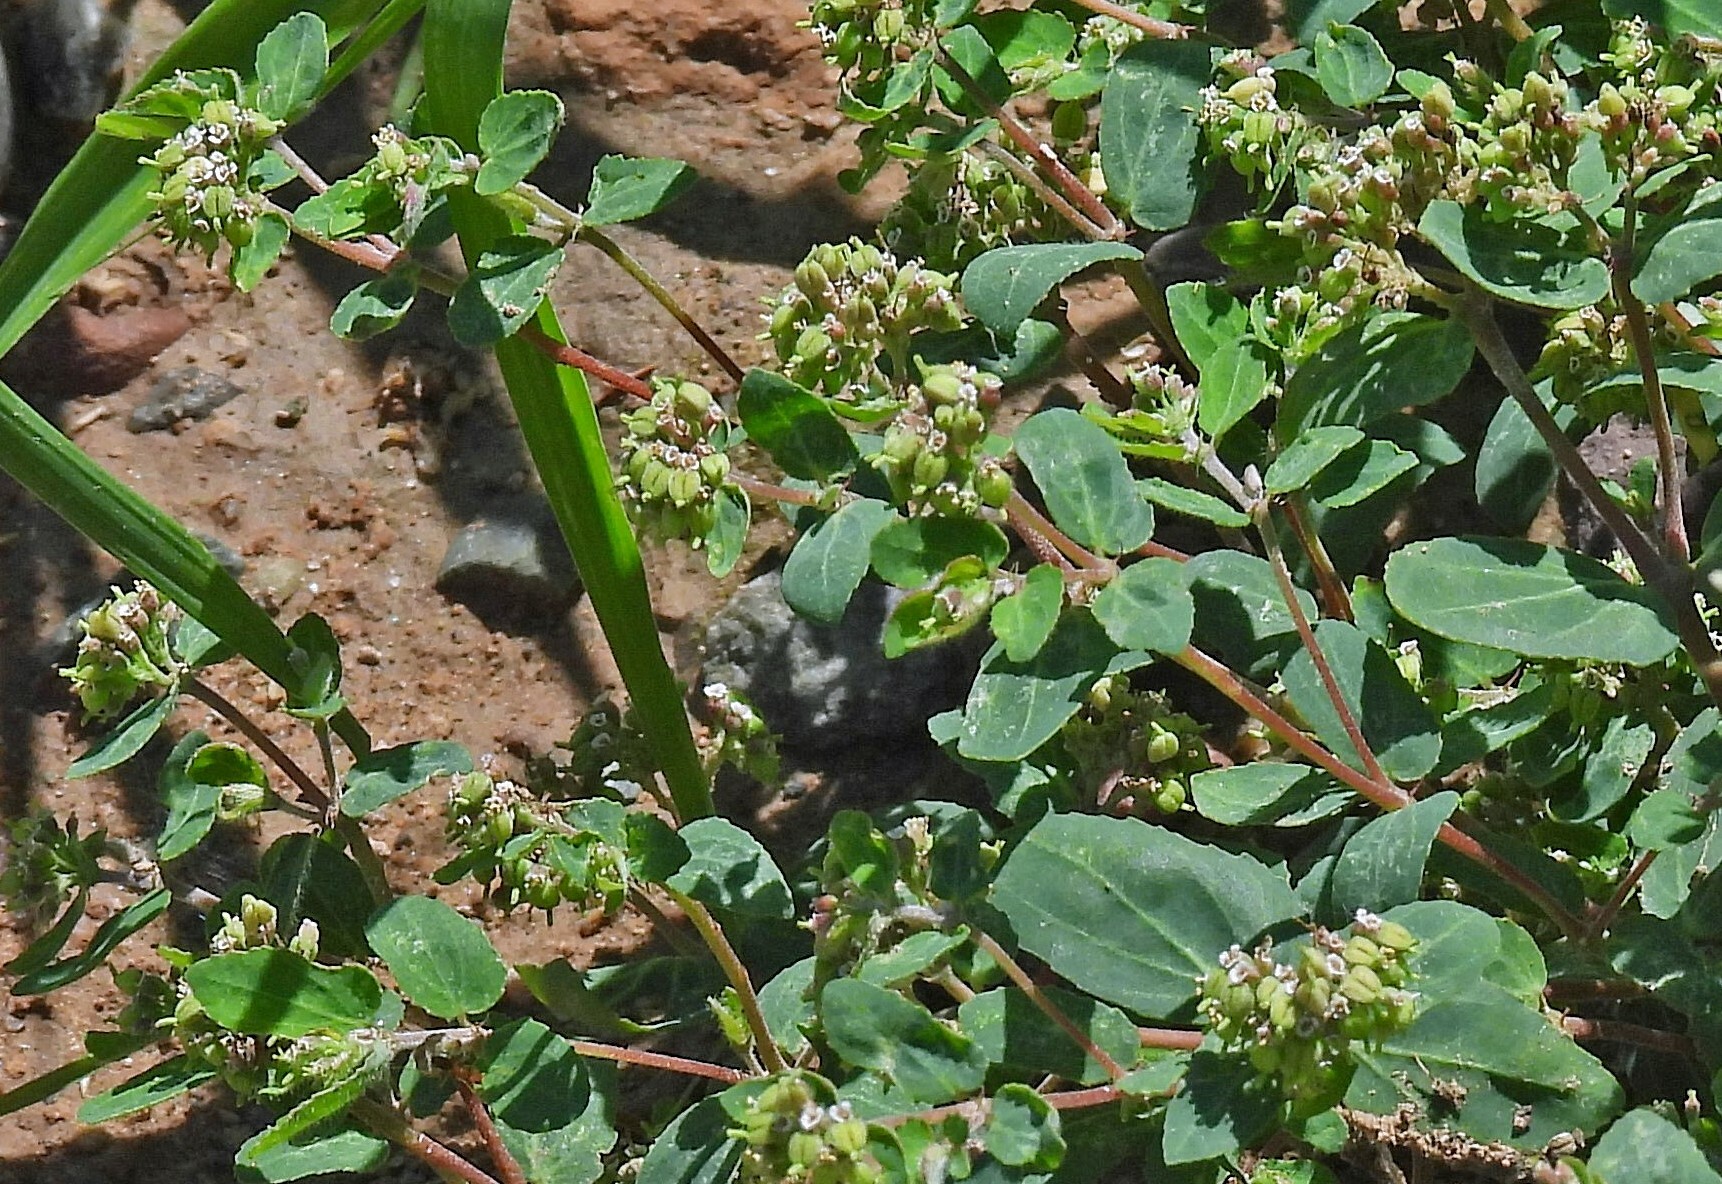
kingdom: Plantae
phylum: Tracheophyta
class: Magnoliopsida
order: Malpighiales
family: Euphorbiaceae
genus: Euphorbia
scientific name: Euphorbia berteroana
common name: Bertero's sandmat
